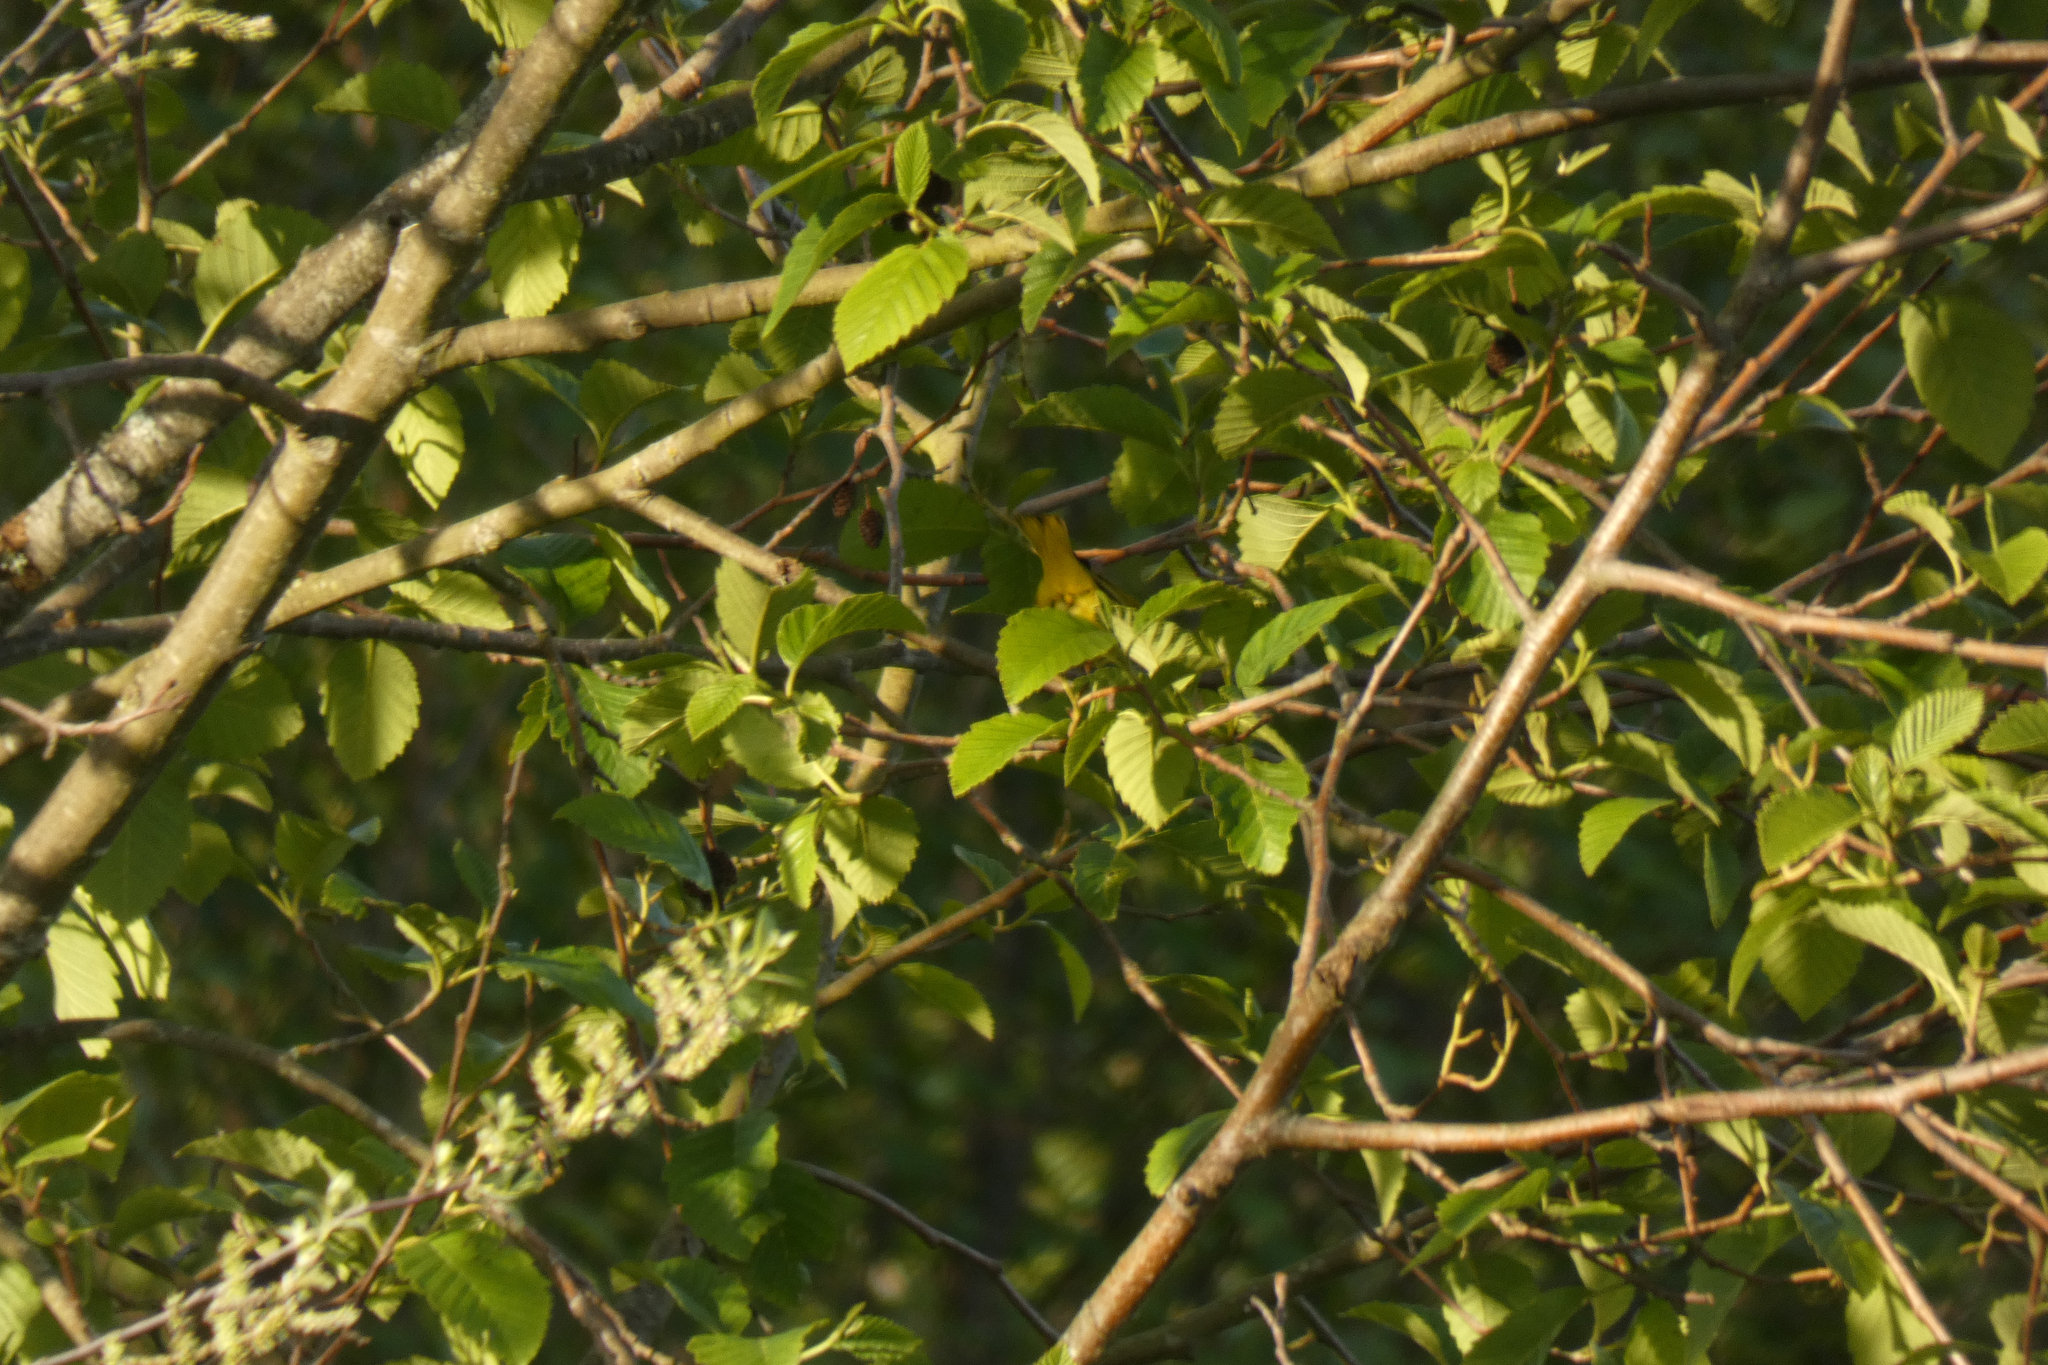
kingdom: Animalia
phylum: Chordata
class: Aves
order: Passeriformes
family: Parulidae
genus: Setophaga
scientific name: Setophaga petechia
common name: Yellow warbler
